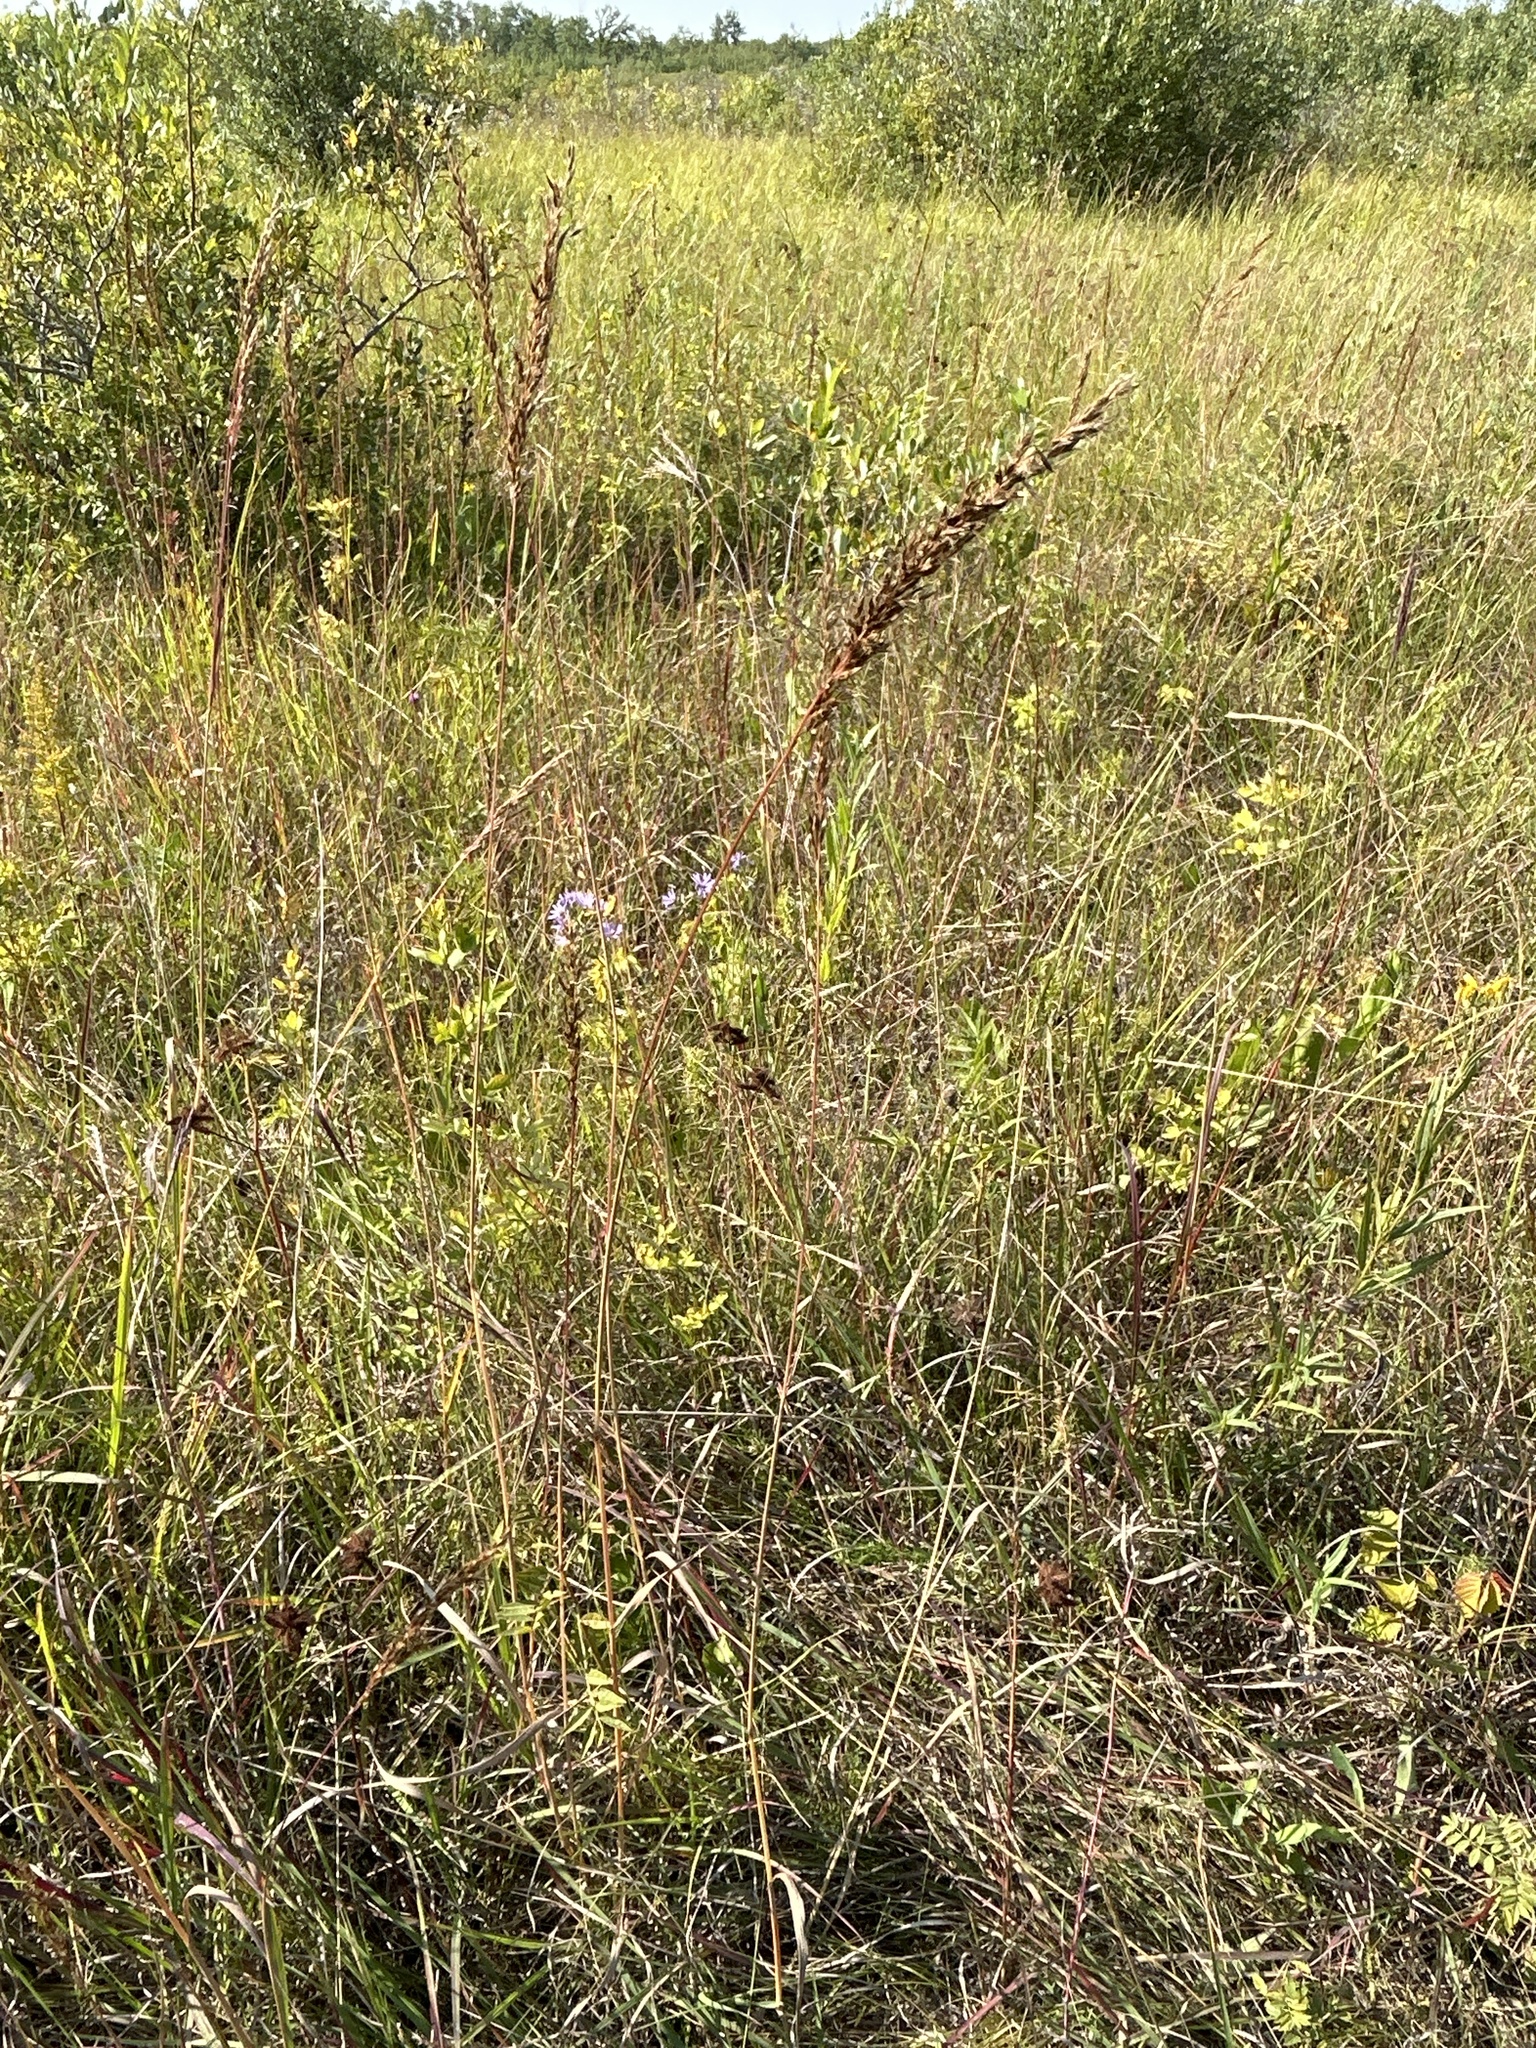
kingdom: Plantae
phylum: Tracheophyta
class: Liliopsida
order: Poales
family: Poaceae
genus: Sorghastrum
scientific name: Sorghastrum nutans
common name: Indian grass
